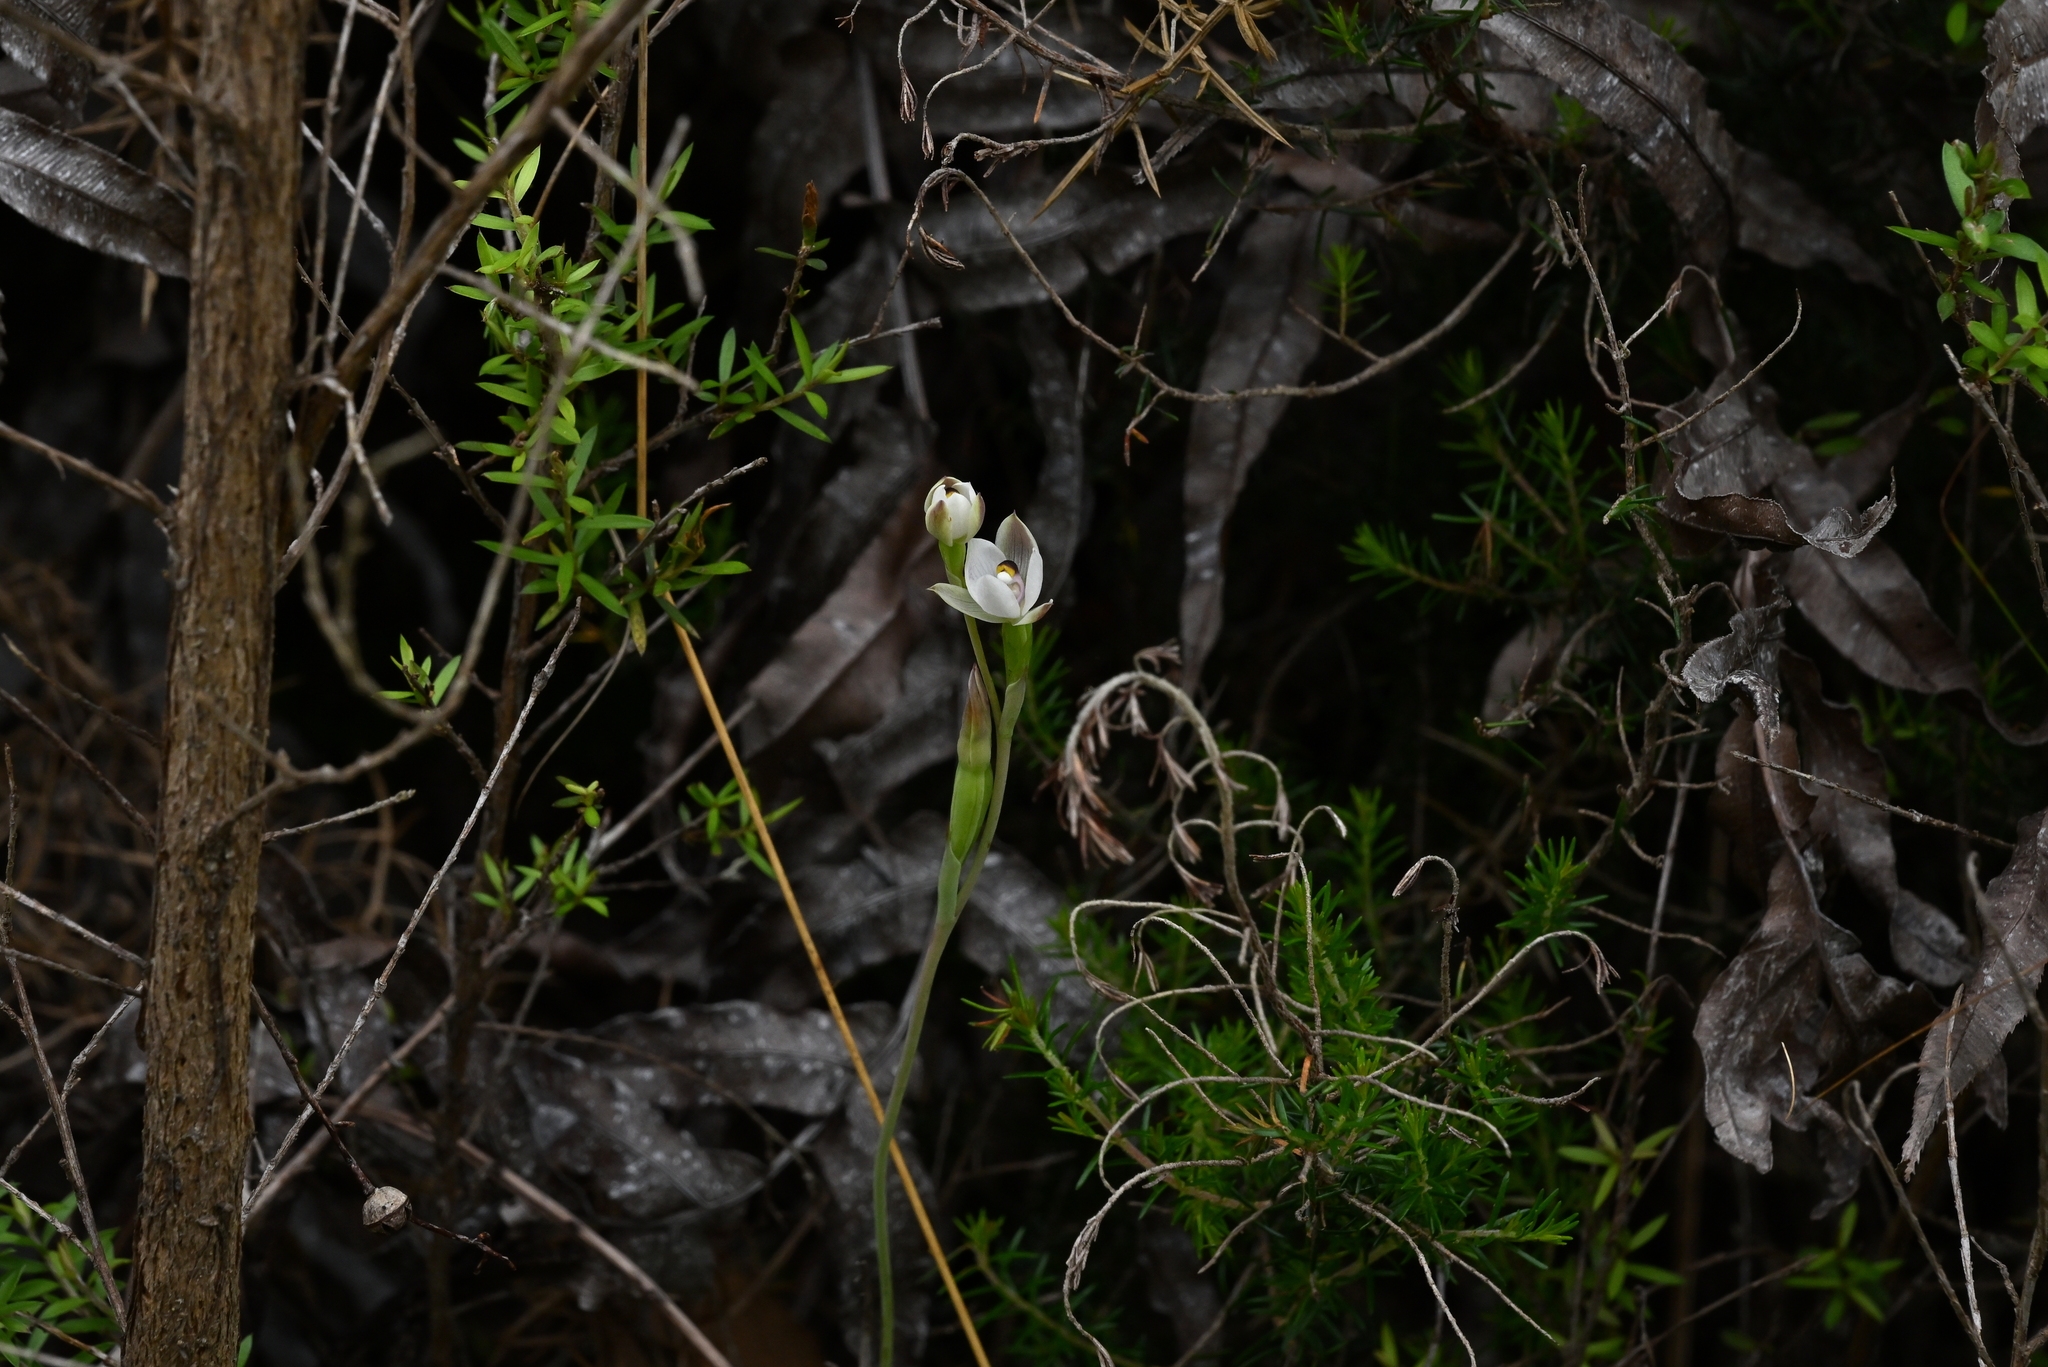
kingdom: Plantae
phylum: Tracheophyta
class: Liliopsida
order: Asparagales
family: Orchidaceae
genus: Thelymitra
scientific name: Thelymitra longifolia
